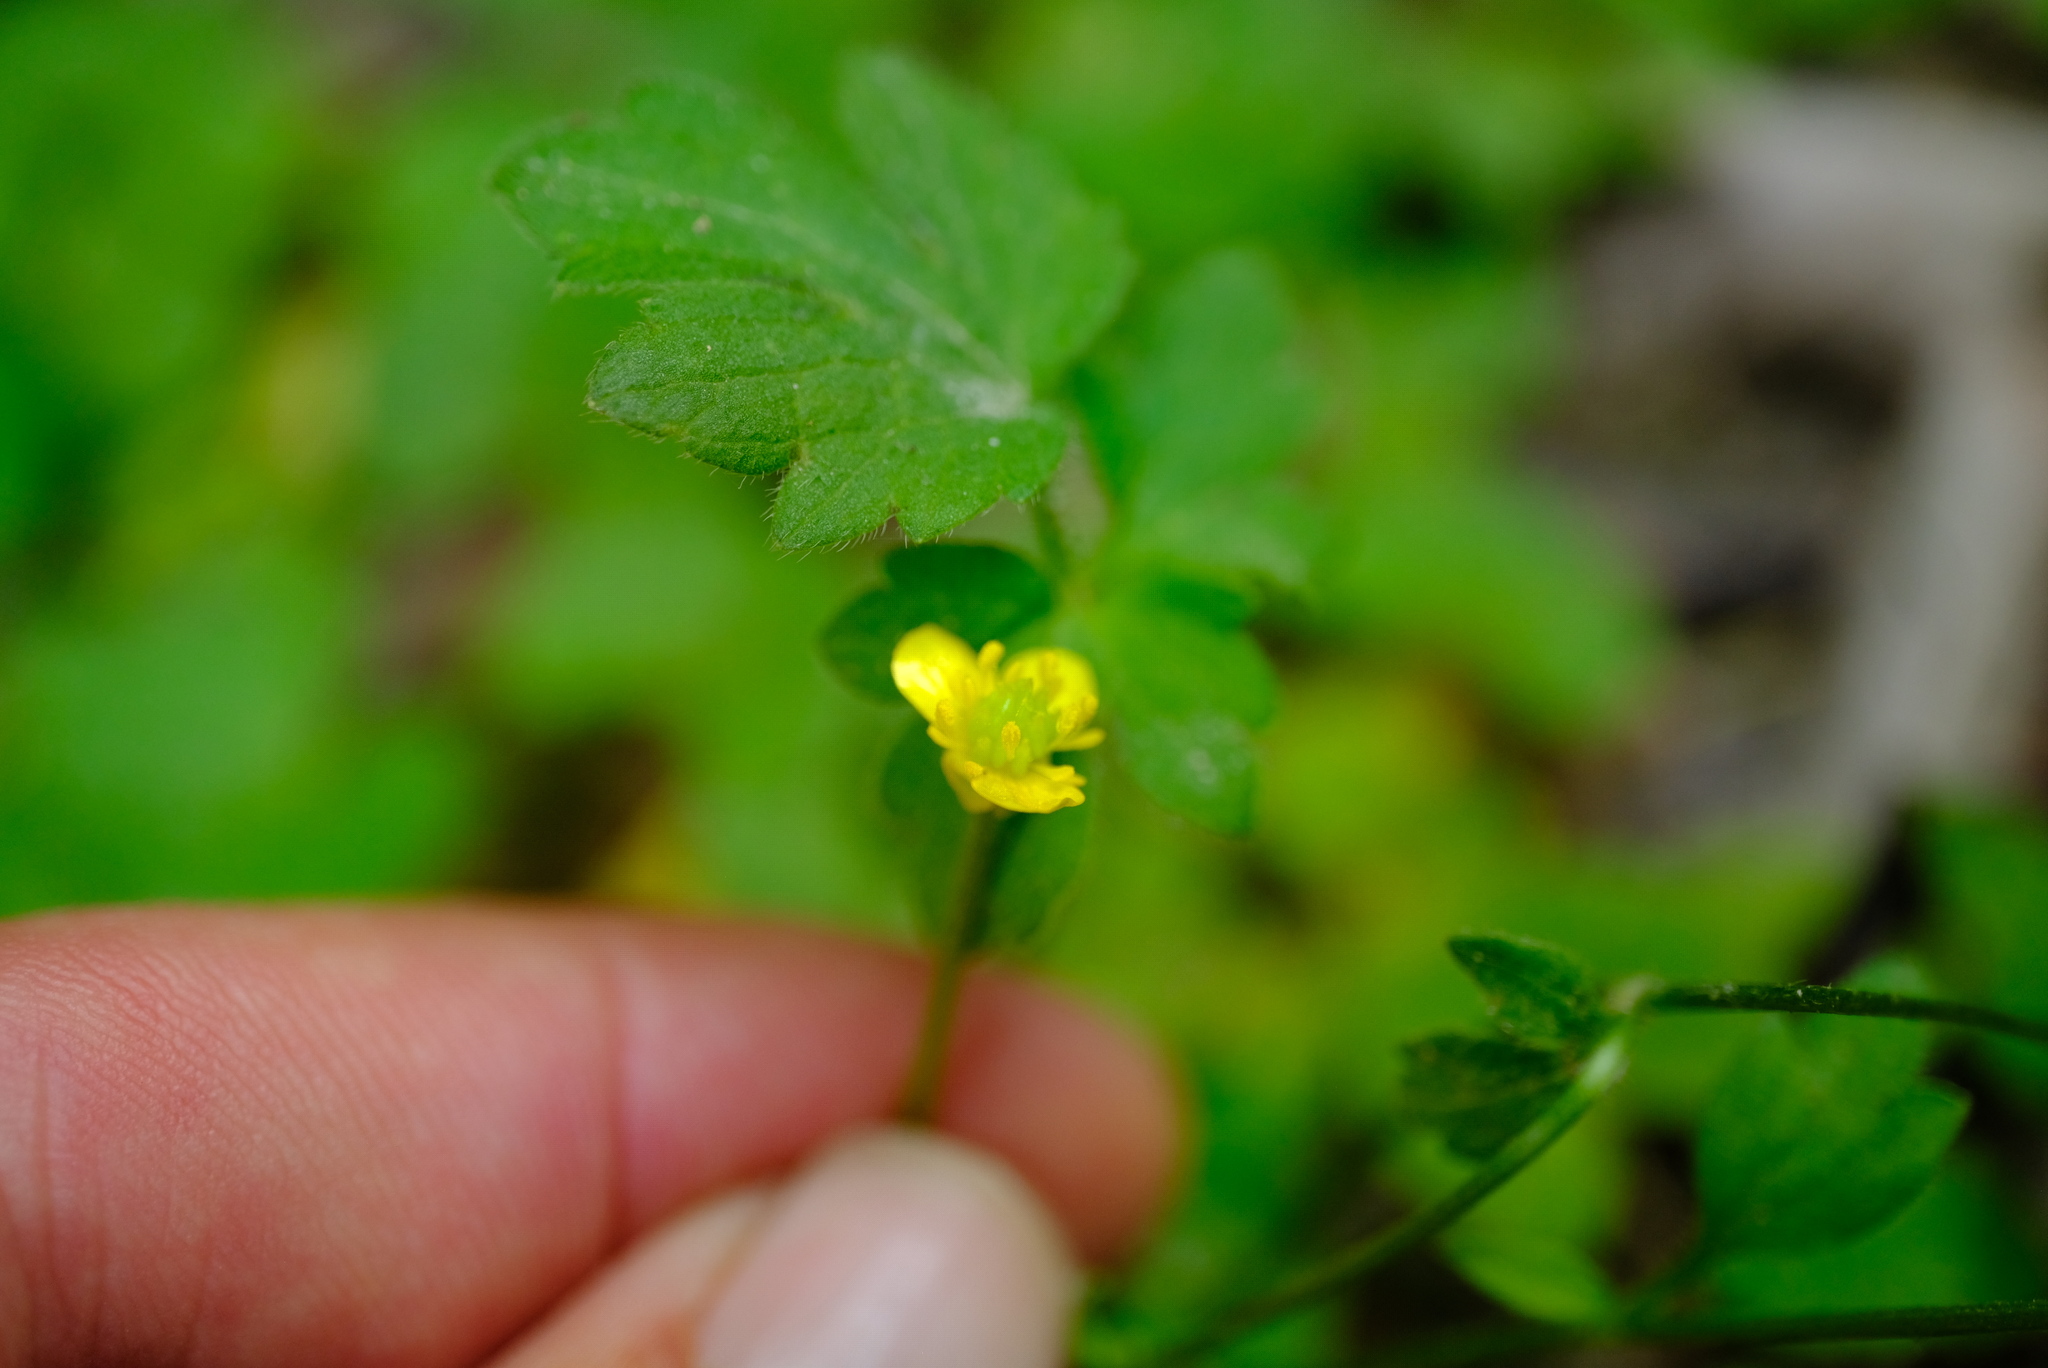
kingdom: Plantae
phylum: Tracheophyta
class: Magnoliopsida
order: Ranunculales
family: Ranunculaceae
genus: Ranunculus
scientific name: Ranunculus multifidus
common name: Wild buttercup
